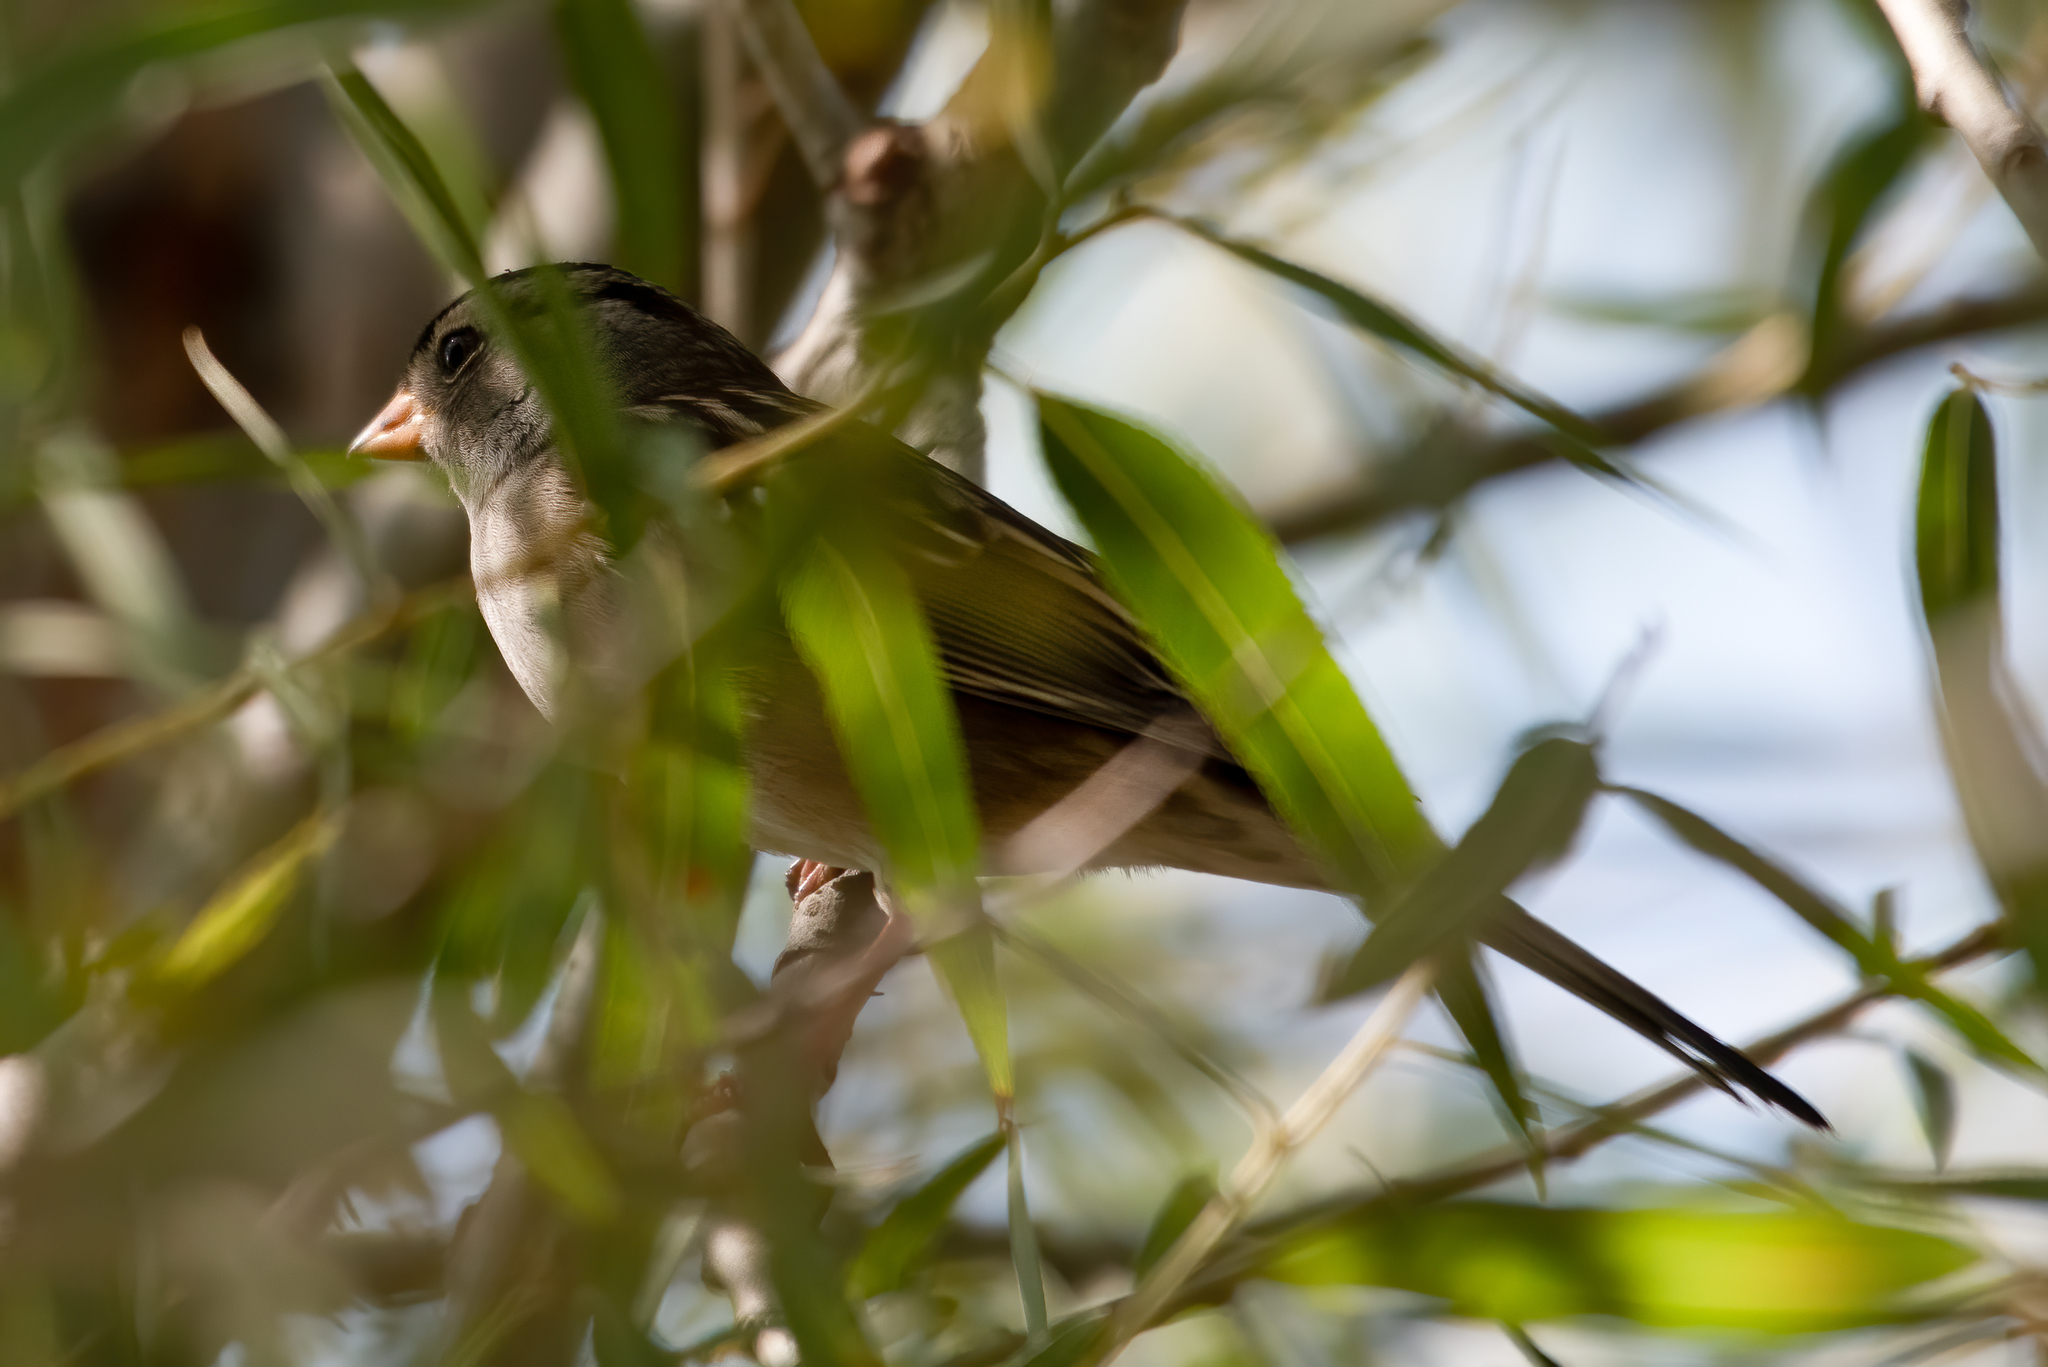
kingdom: Animalia
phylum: Chordata
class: Aves
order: Passeriformes
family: Passerellidae
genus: Zonotrichia
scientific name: Zonotrichia leucophrys
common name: White-crowned sparrow
